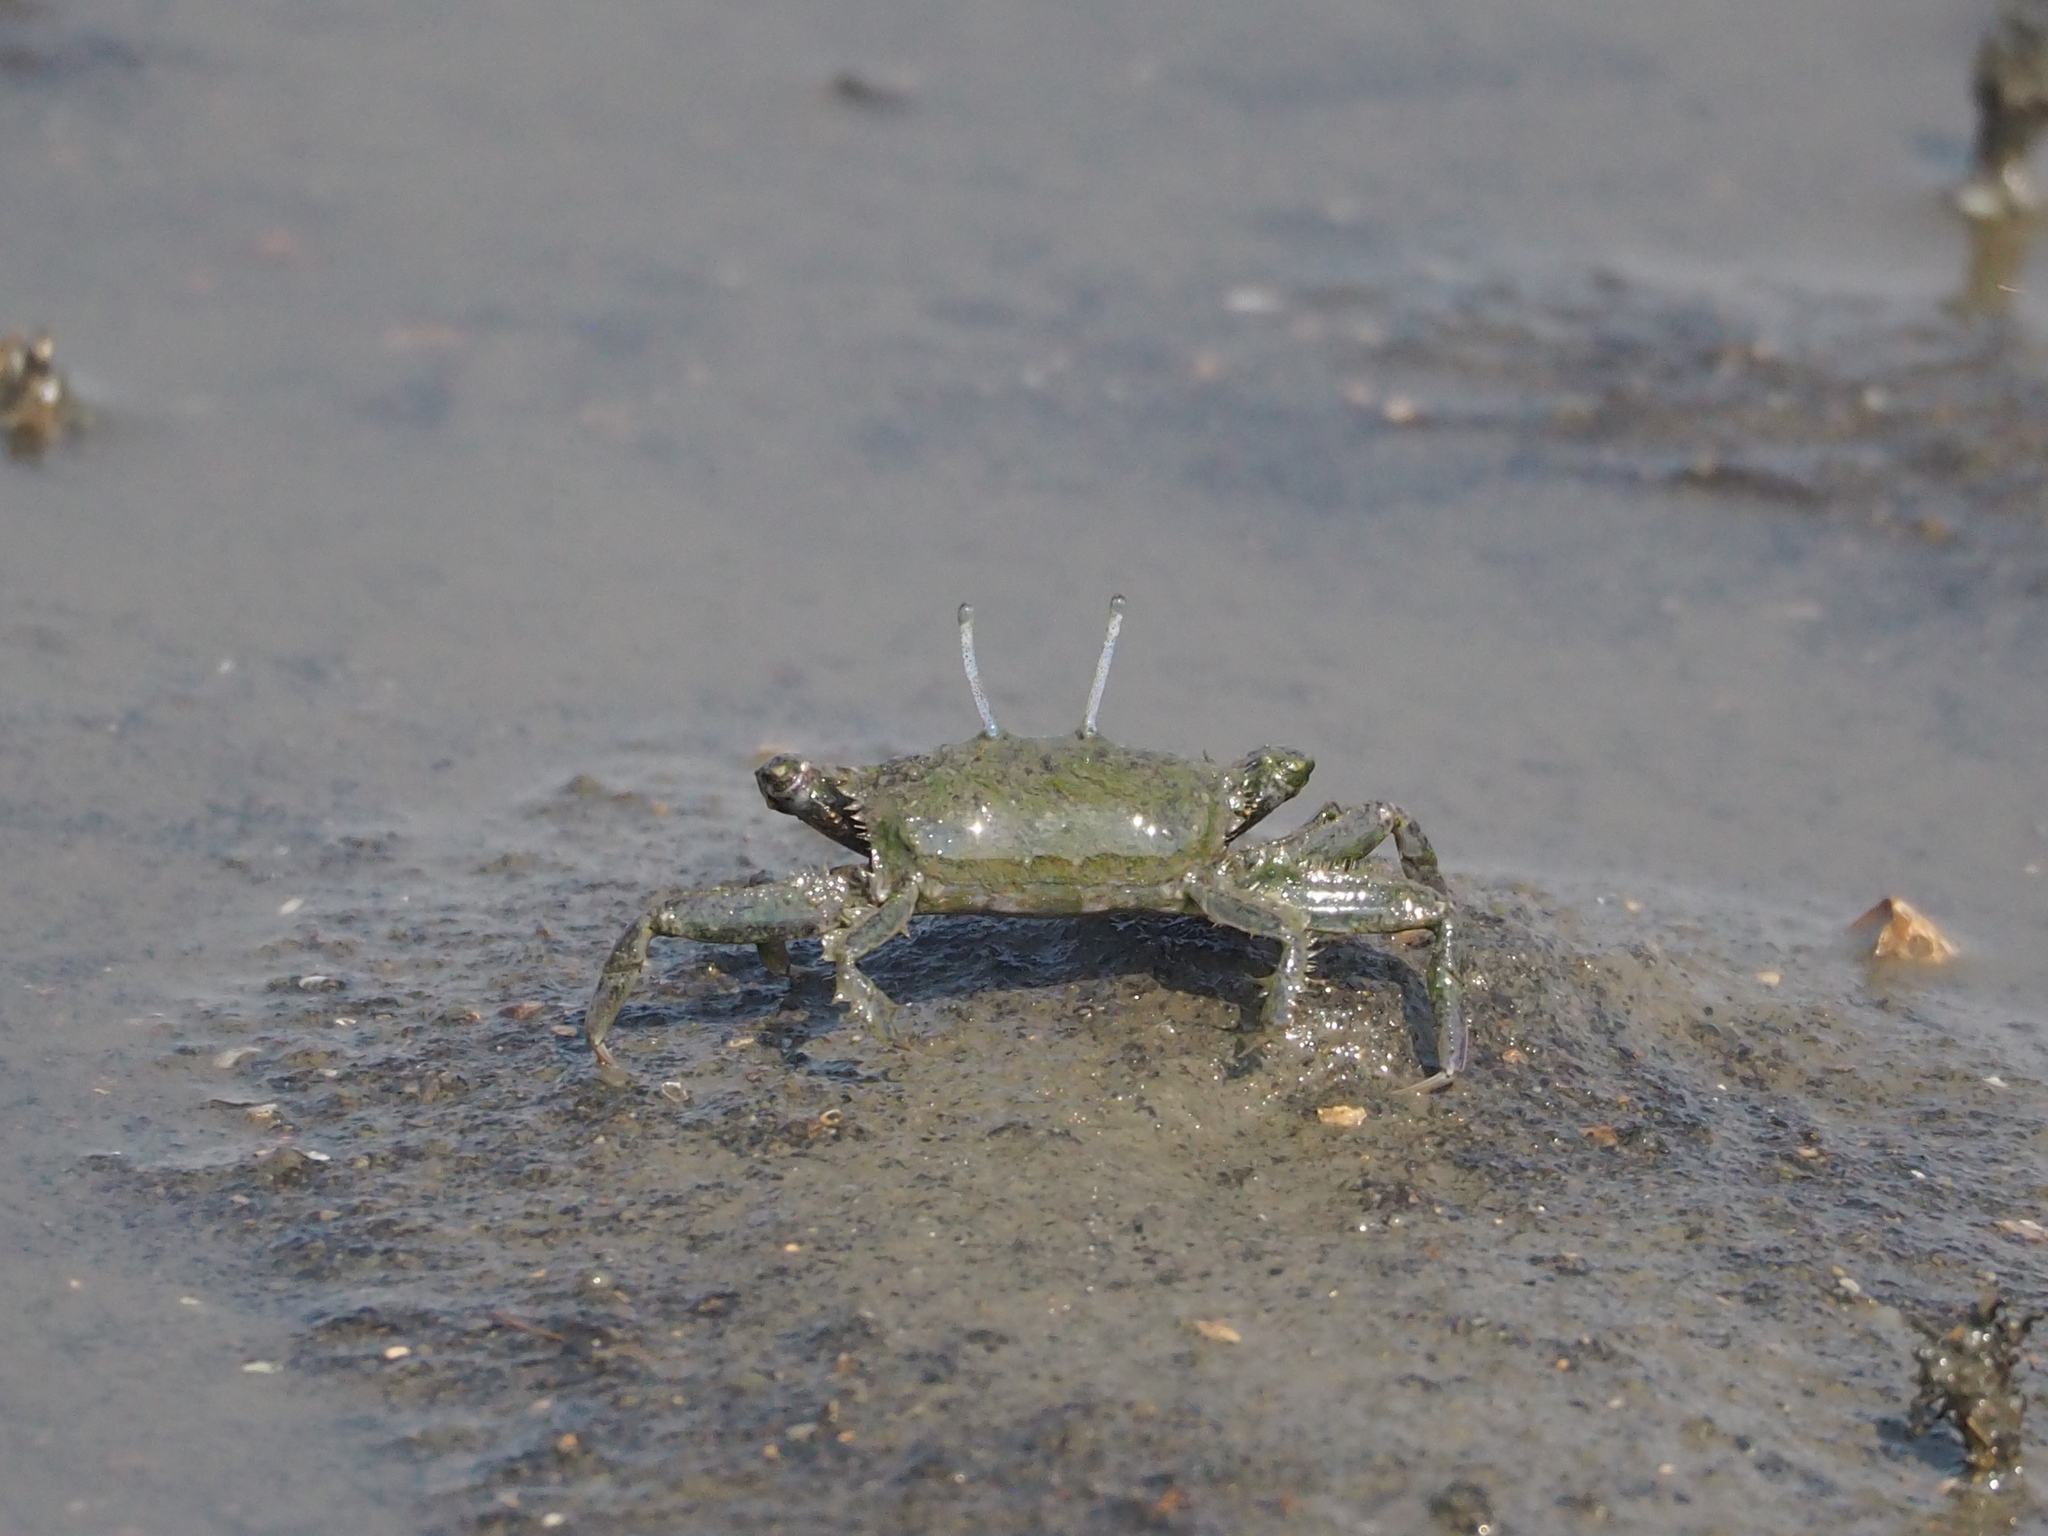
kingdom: Animalia
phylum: Arthropoda
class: Malacostraca
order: Decapoda
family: Macrophthalmidae
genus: Macrophthalmus
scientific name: Macrophthalmus abbreviatus
